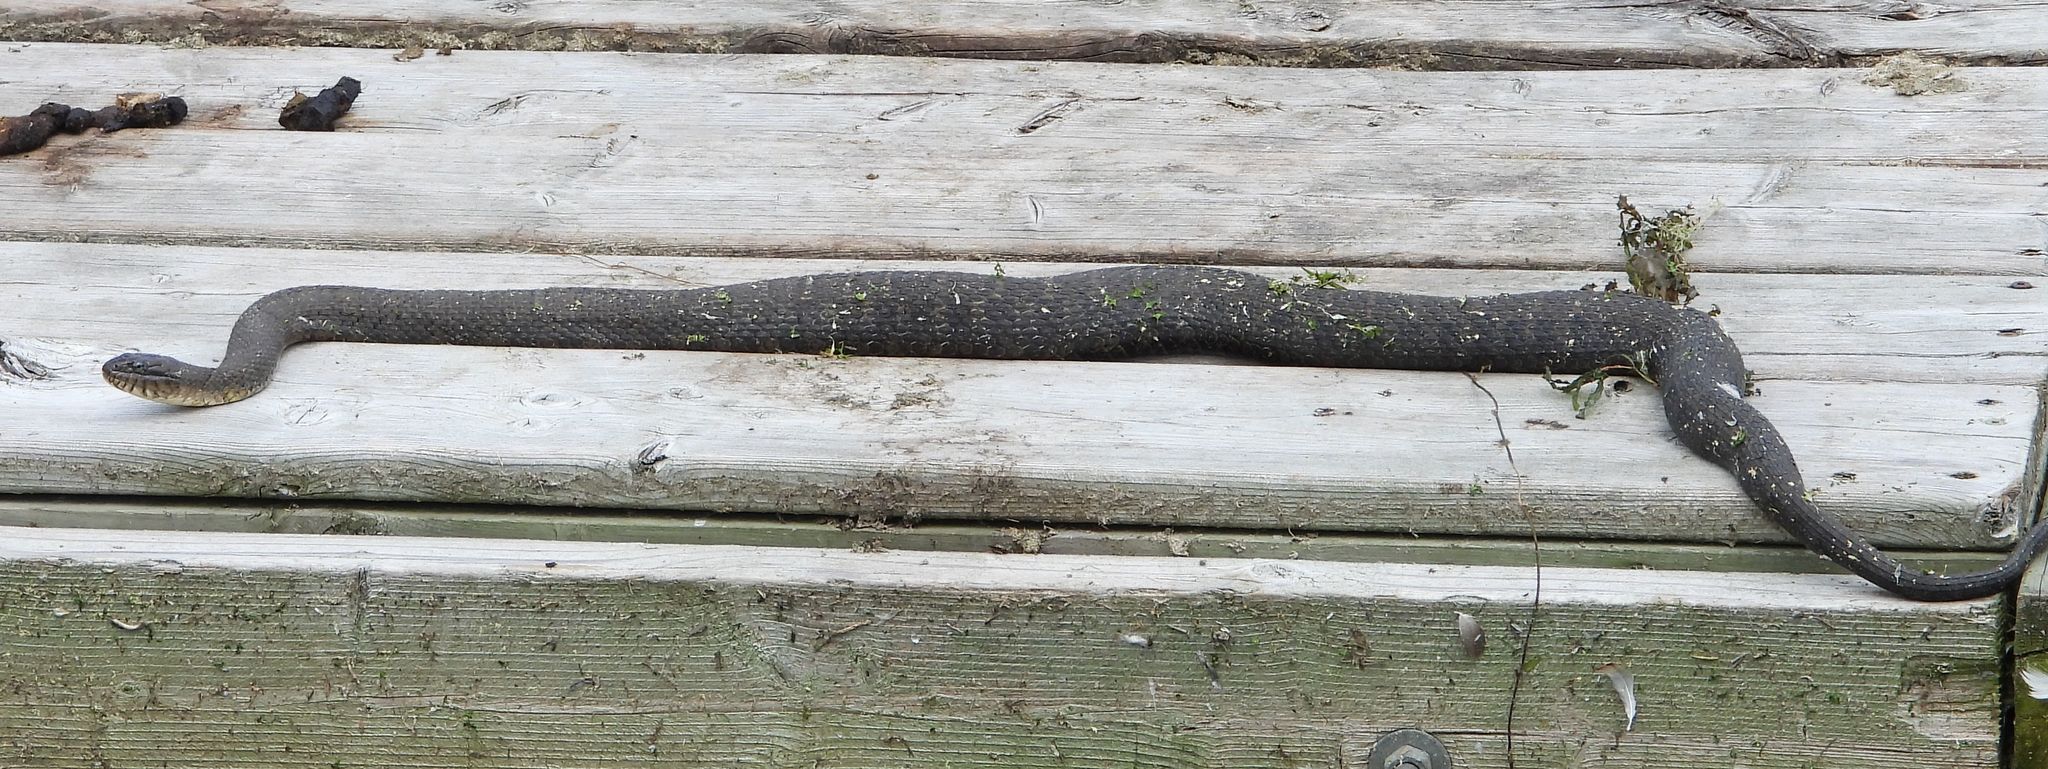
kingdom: Animalia
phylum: Chordata
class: Squamata
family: Colubridae
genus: Nerodia
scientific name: Nerodia sipedon
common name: Northern water snake
